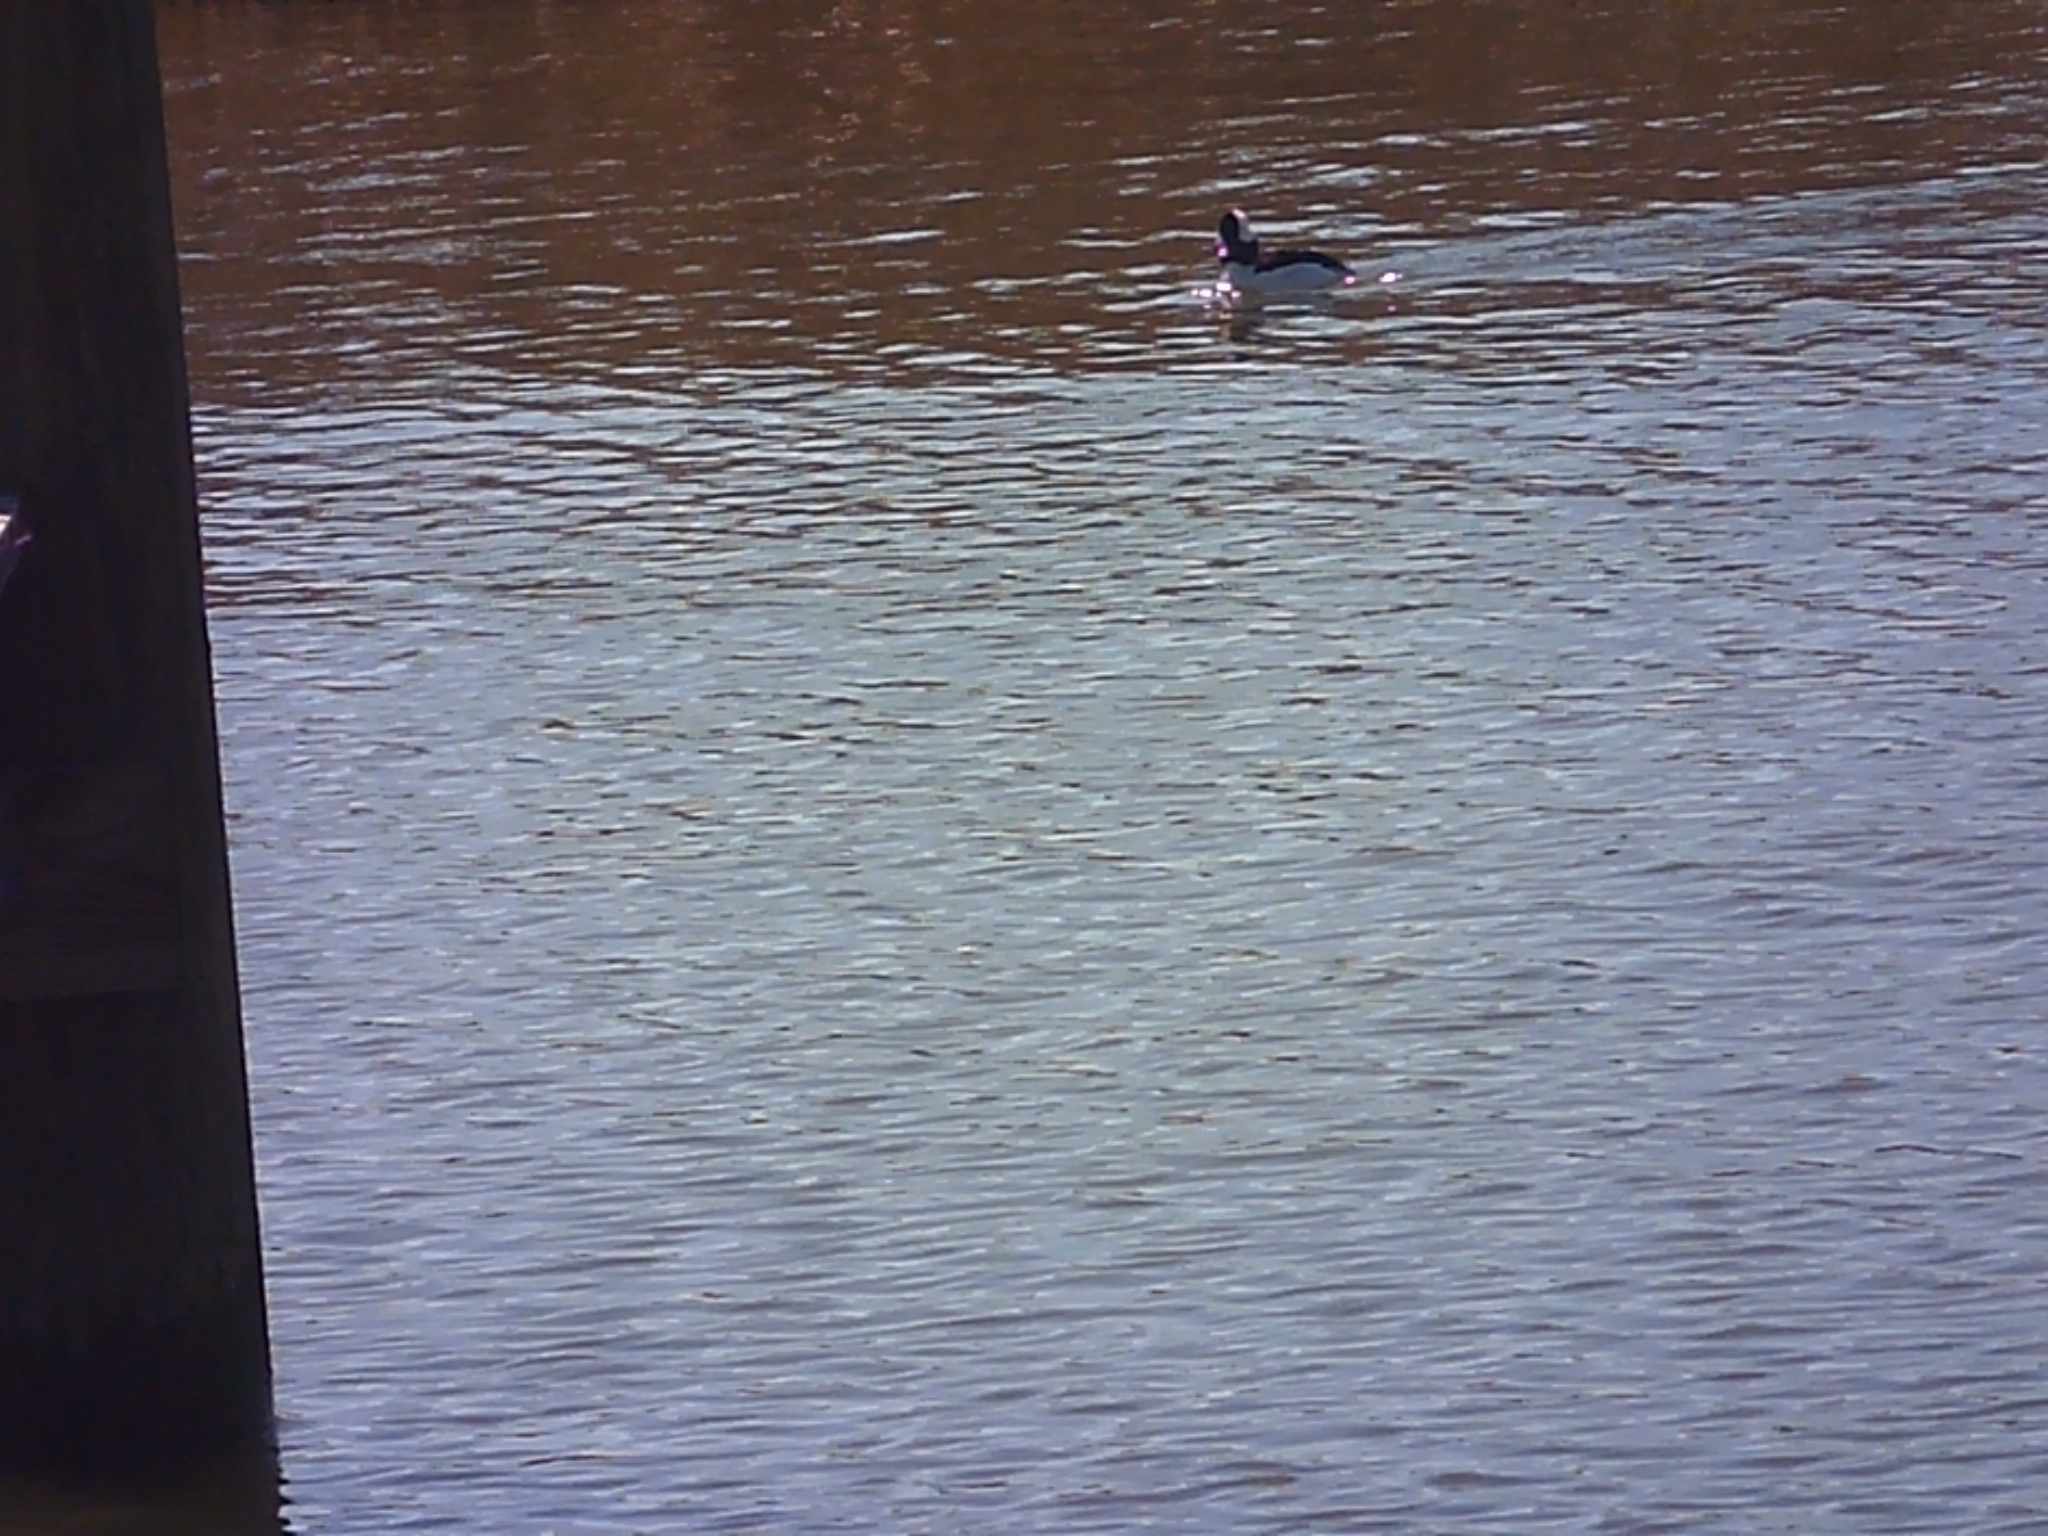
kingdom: Animalia
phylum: Chordata
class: Aves
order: Anseriformes
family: Anatidae
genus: Bucephala
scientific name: Bucephala albeola
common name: Bufflehead
